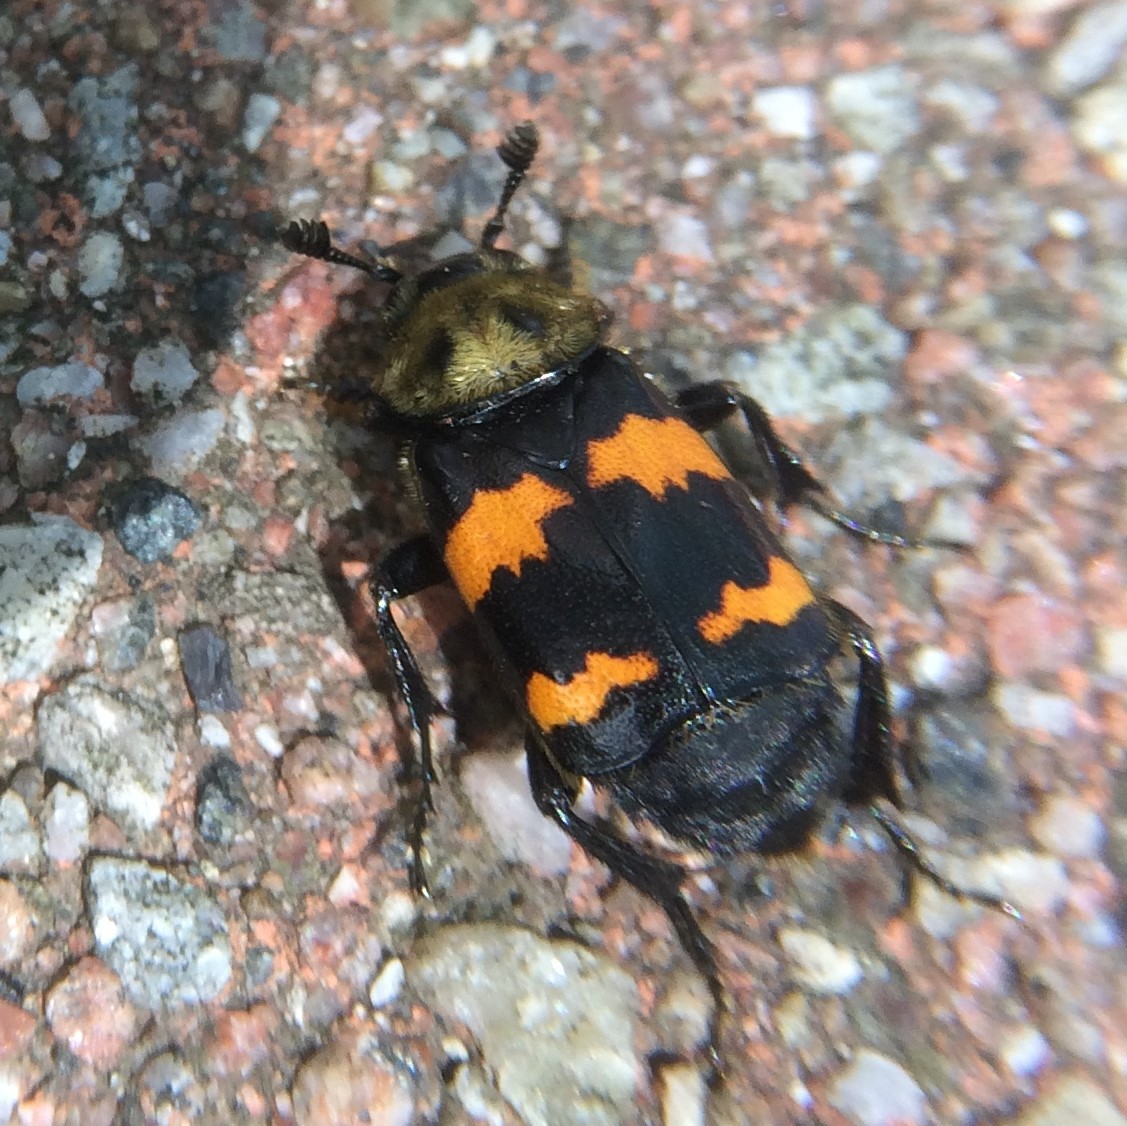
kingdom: Animalia
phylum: Arthropoda
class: Insecta
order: Coleoptera
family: Staphylinidae
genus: Nicrophorus
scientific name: Nicrophorus tomentosus
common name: Tomentose burying beetle
